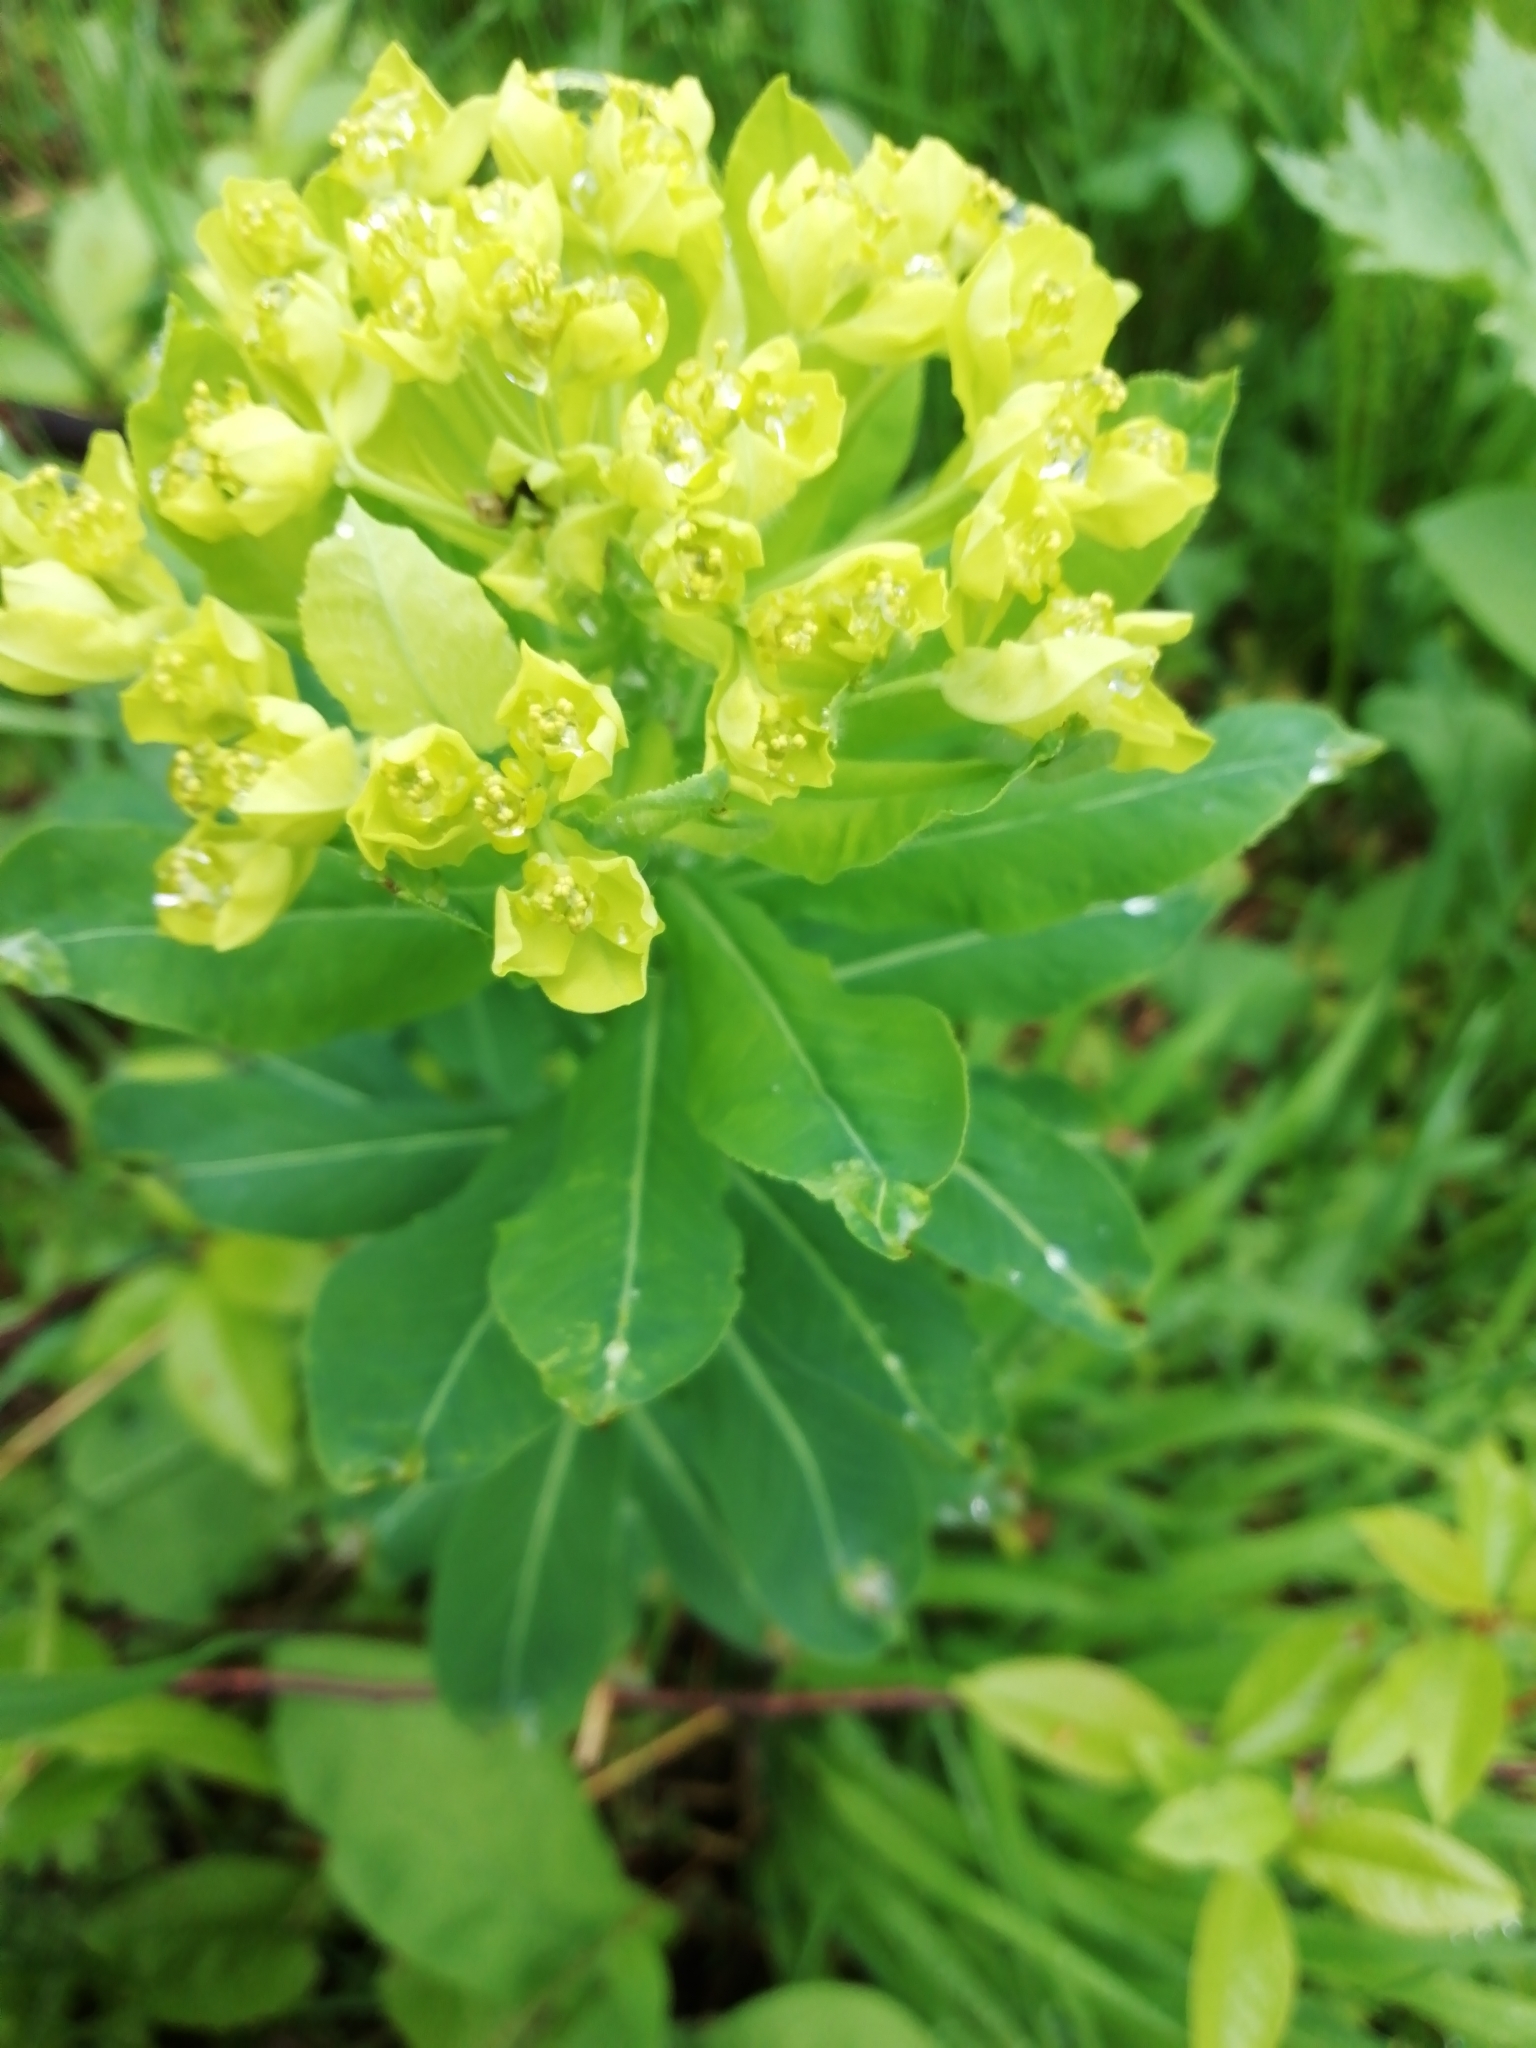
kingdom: Plantae
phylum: Tracheophyta
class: Magnoliopsida
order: Malpighiales
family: Euphorbiaceae
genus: Euphorbia
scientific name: Euphorbia pilosa
